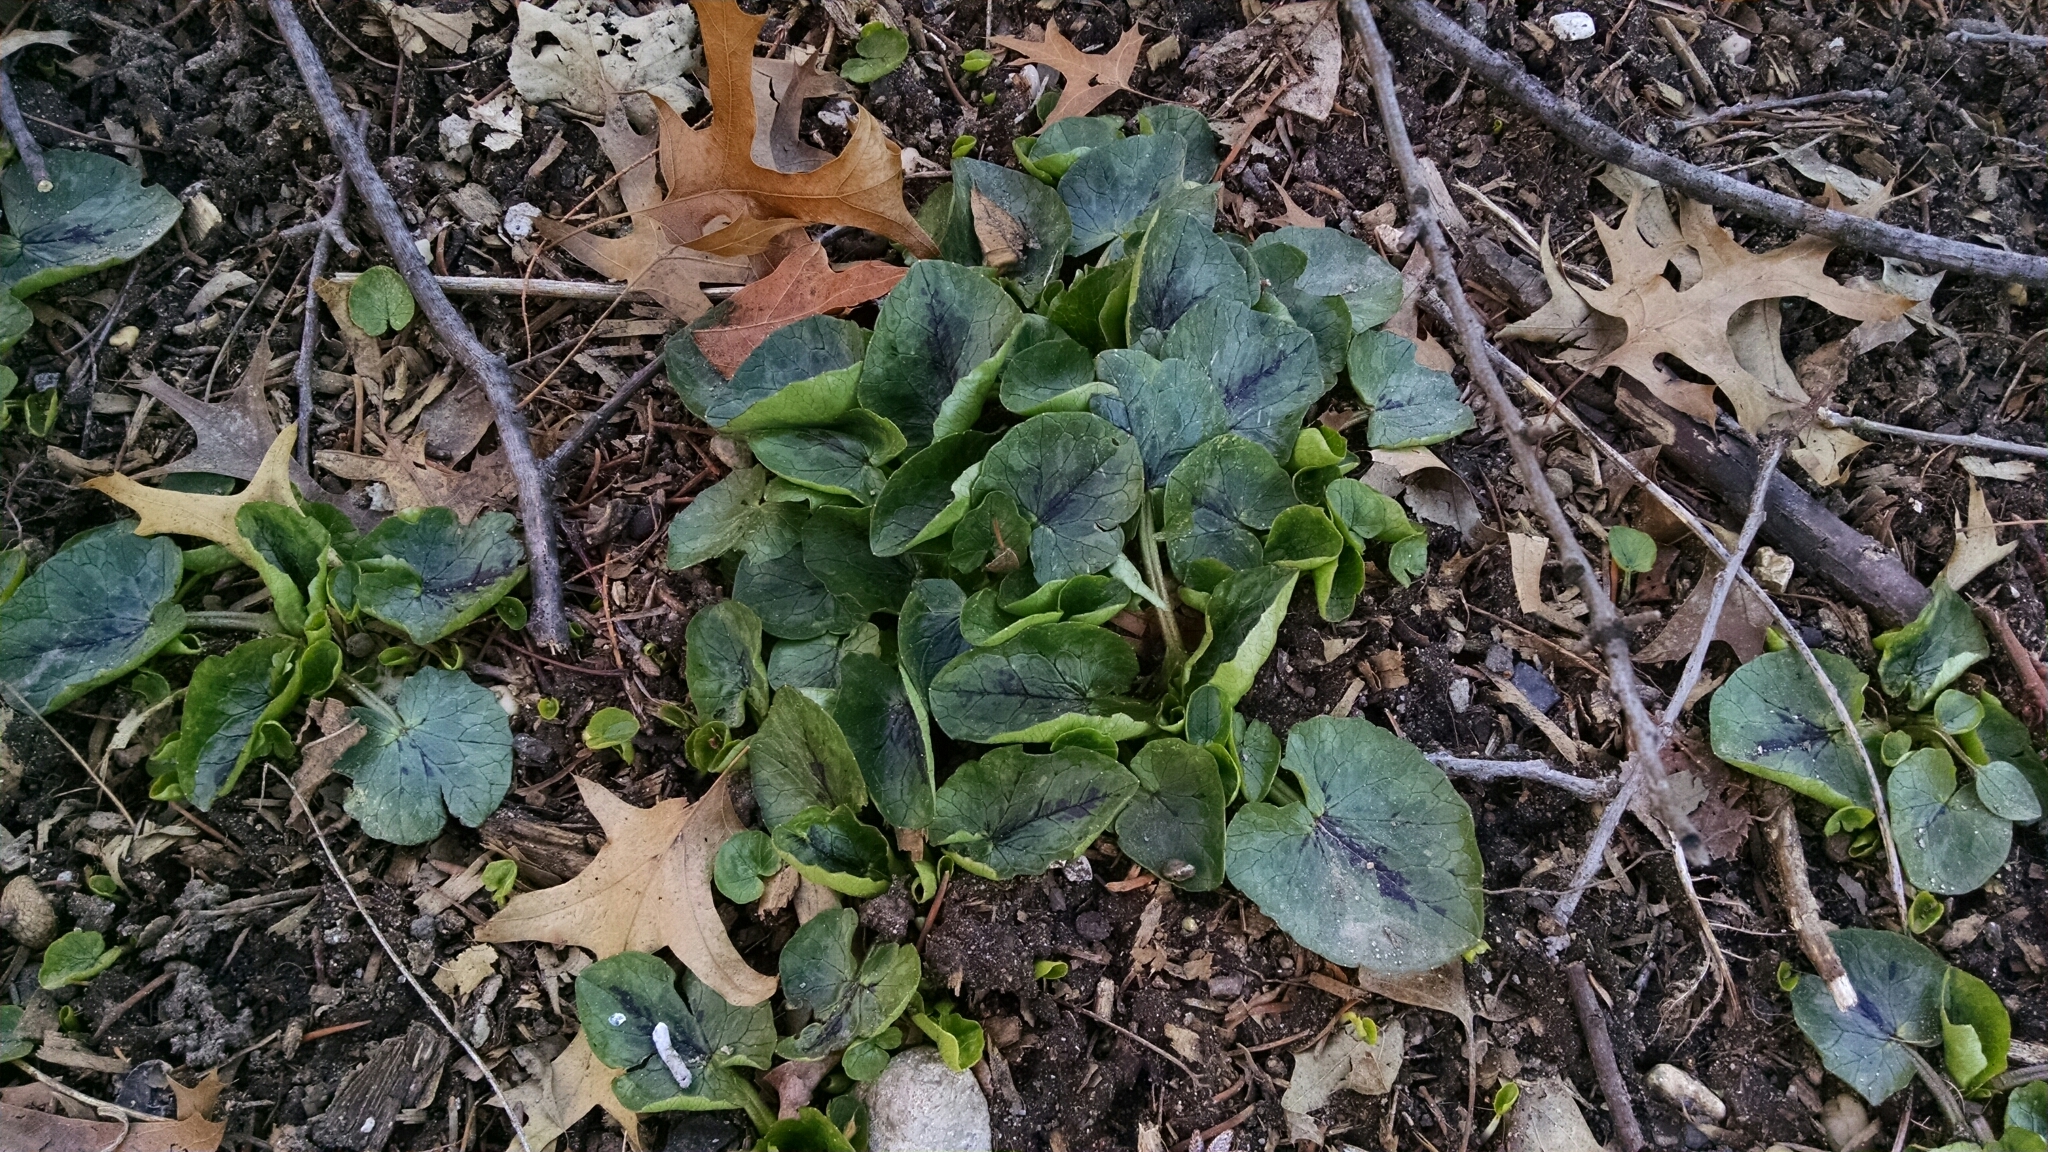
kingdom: Plantae
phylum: Tracheophyta
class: Magnoliopsida
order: Ranunculales
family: Ranunculaceae
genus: Ficaria
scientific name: Ficaria verna
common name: Lesser celandine
